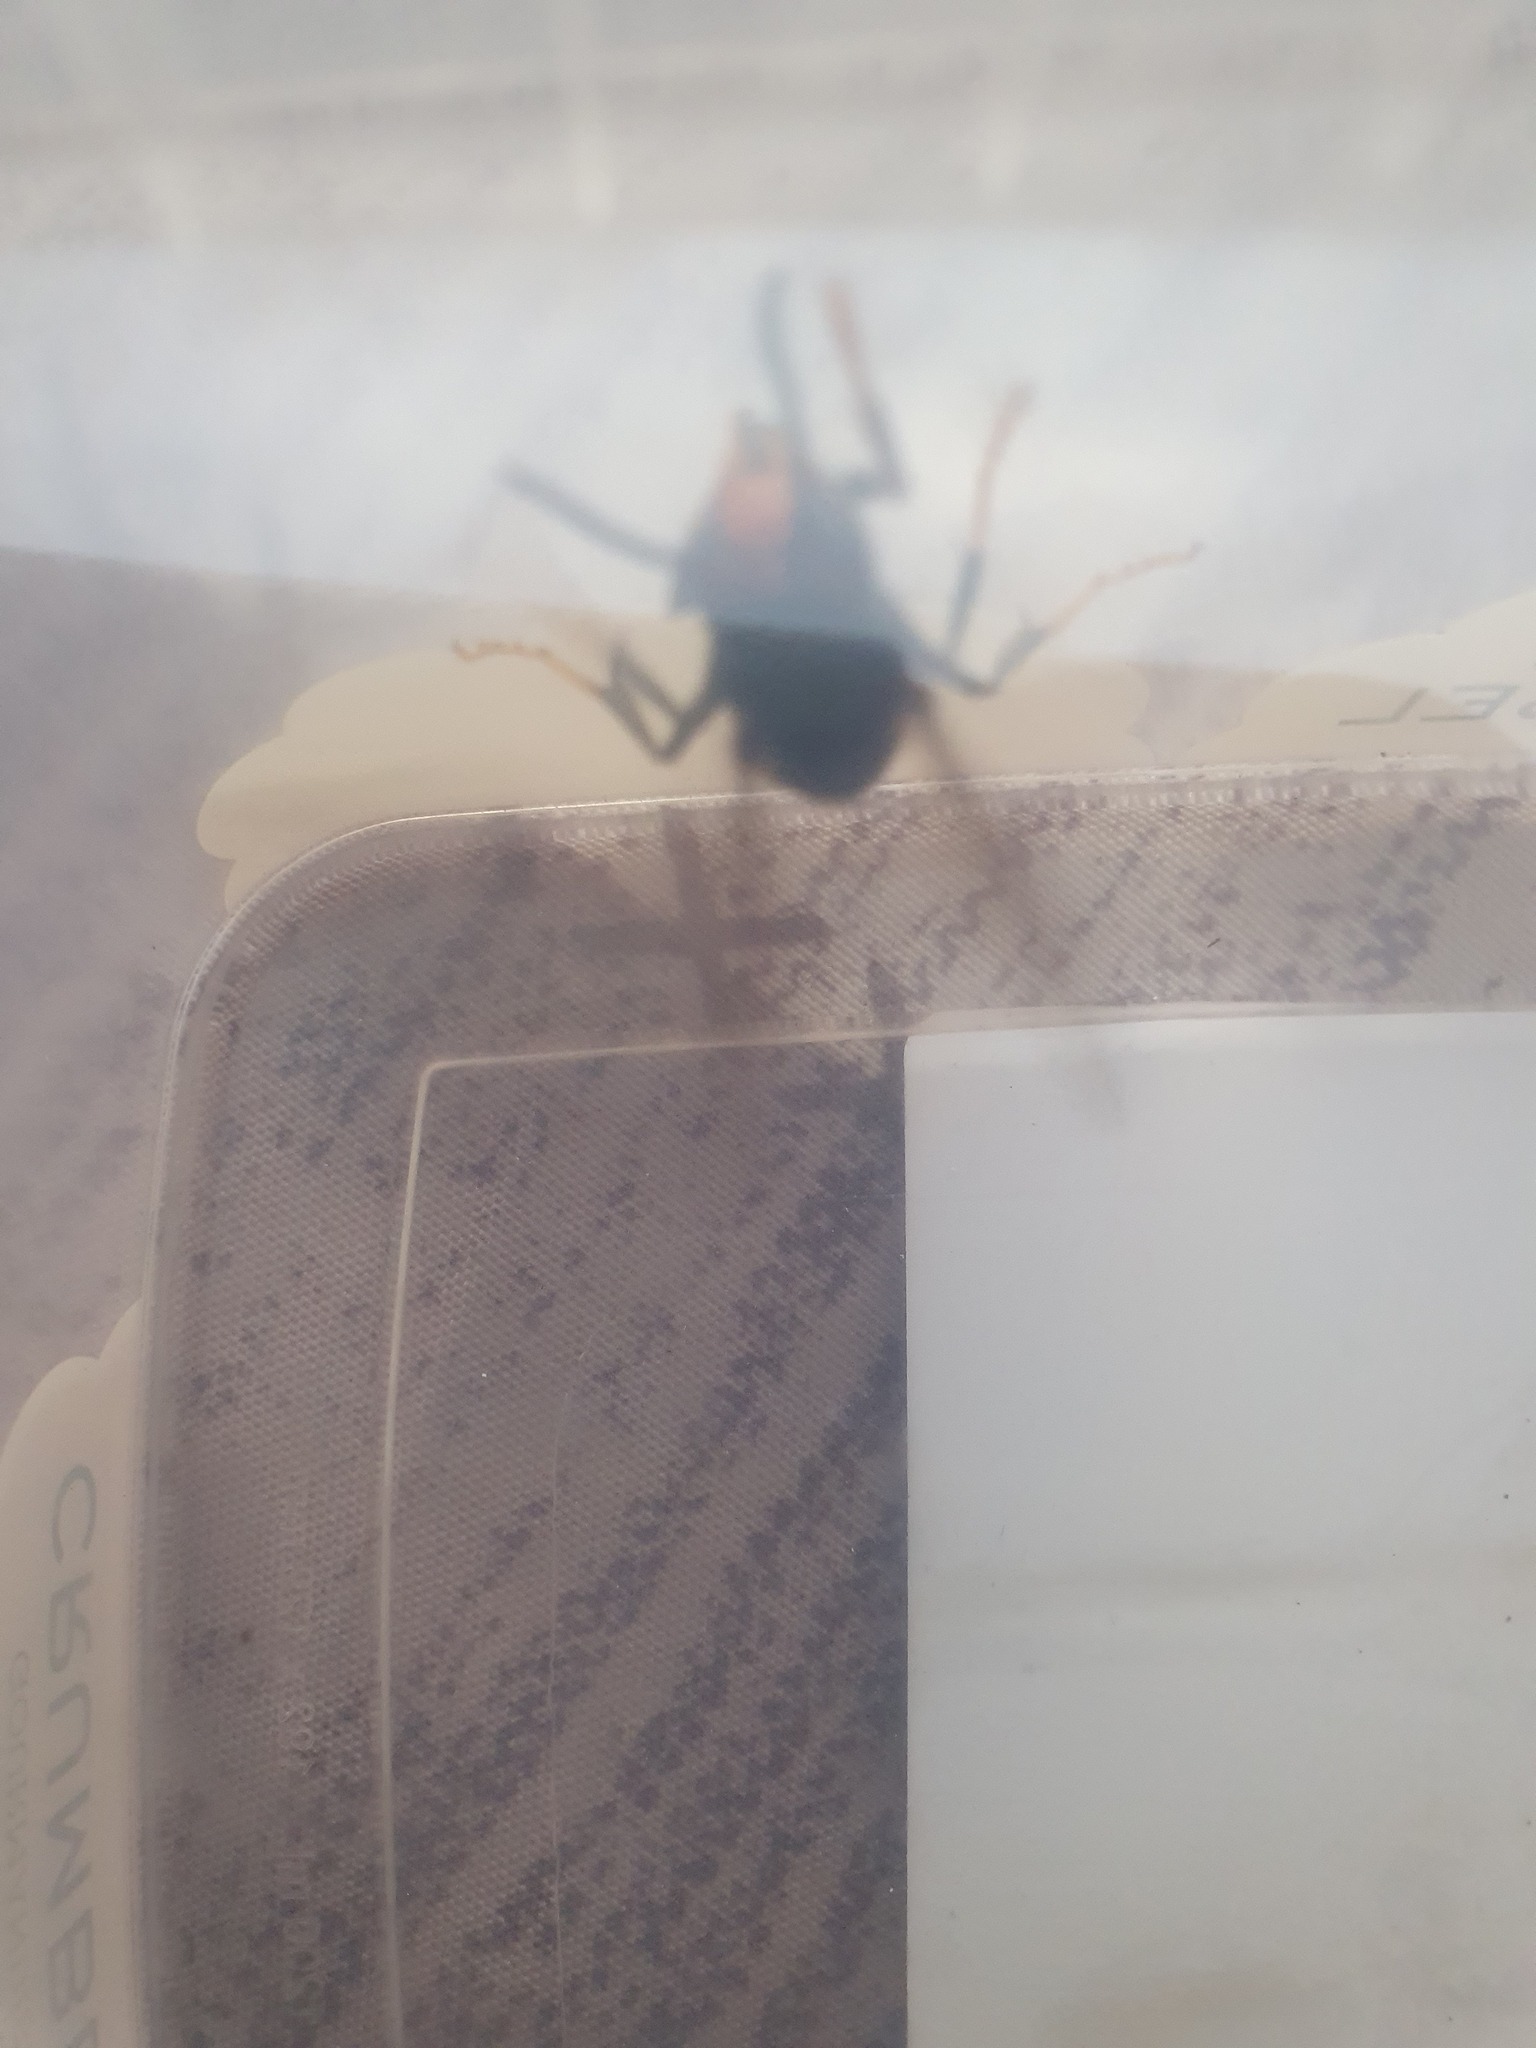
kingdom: Animalia
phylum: Arthropoda
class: Insecta
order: Hymenoptera
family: Vespidae
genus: Vespa
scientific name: Vespa velutina
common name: Asian hornet
